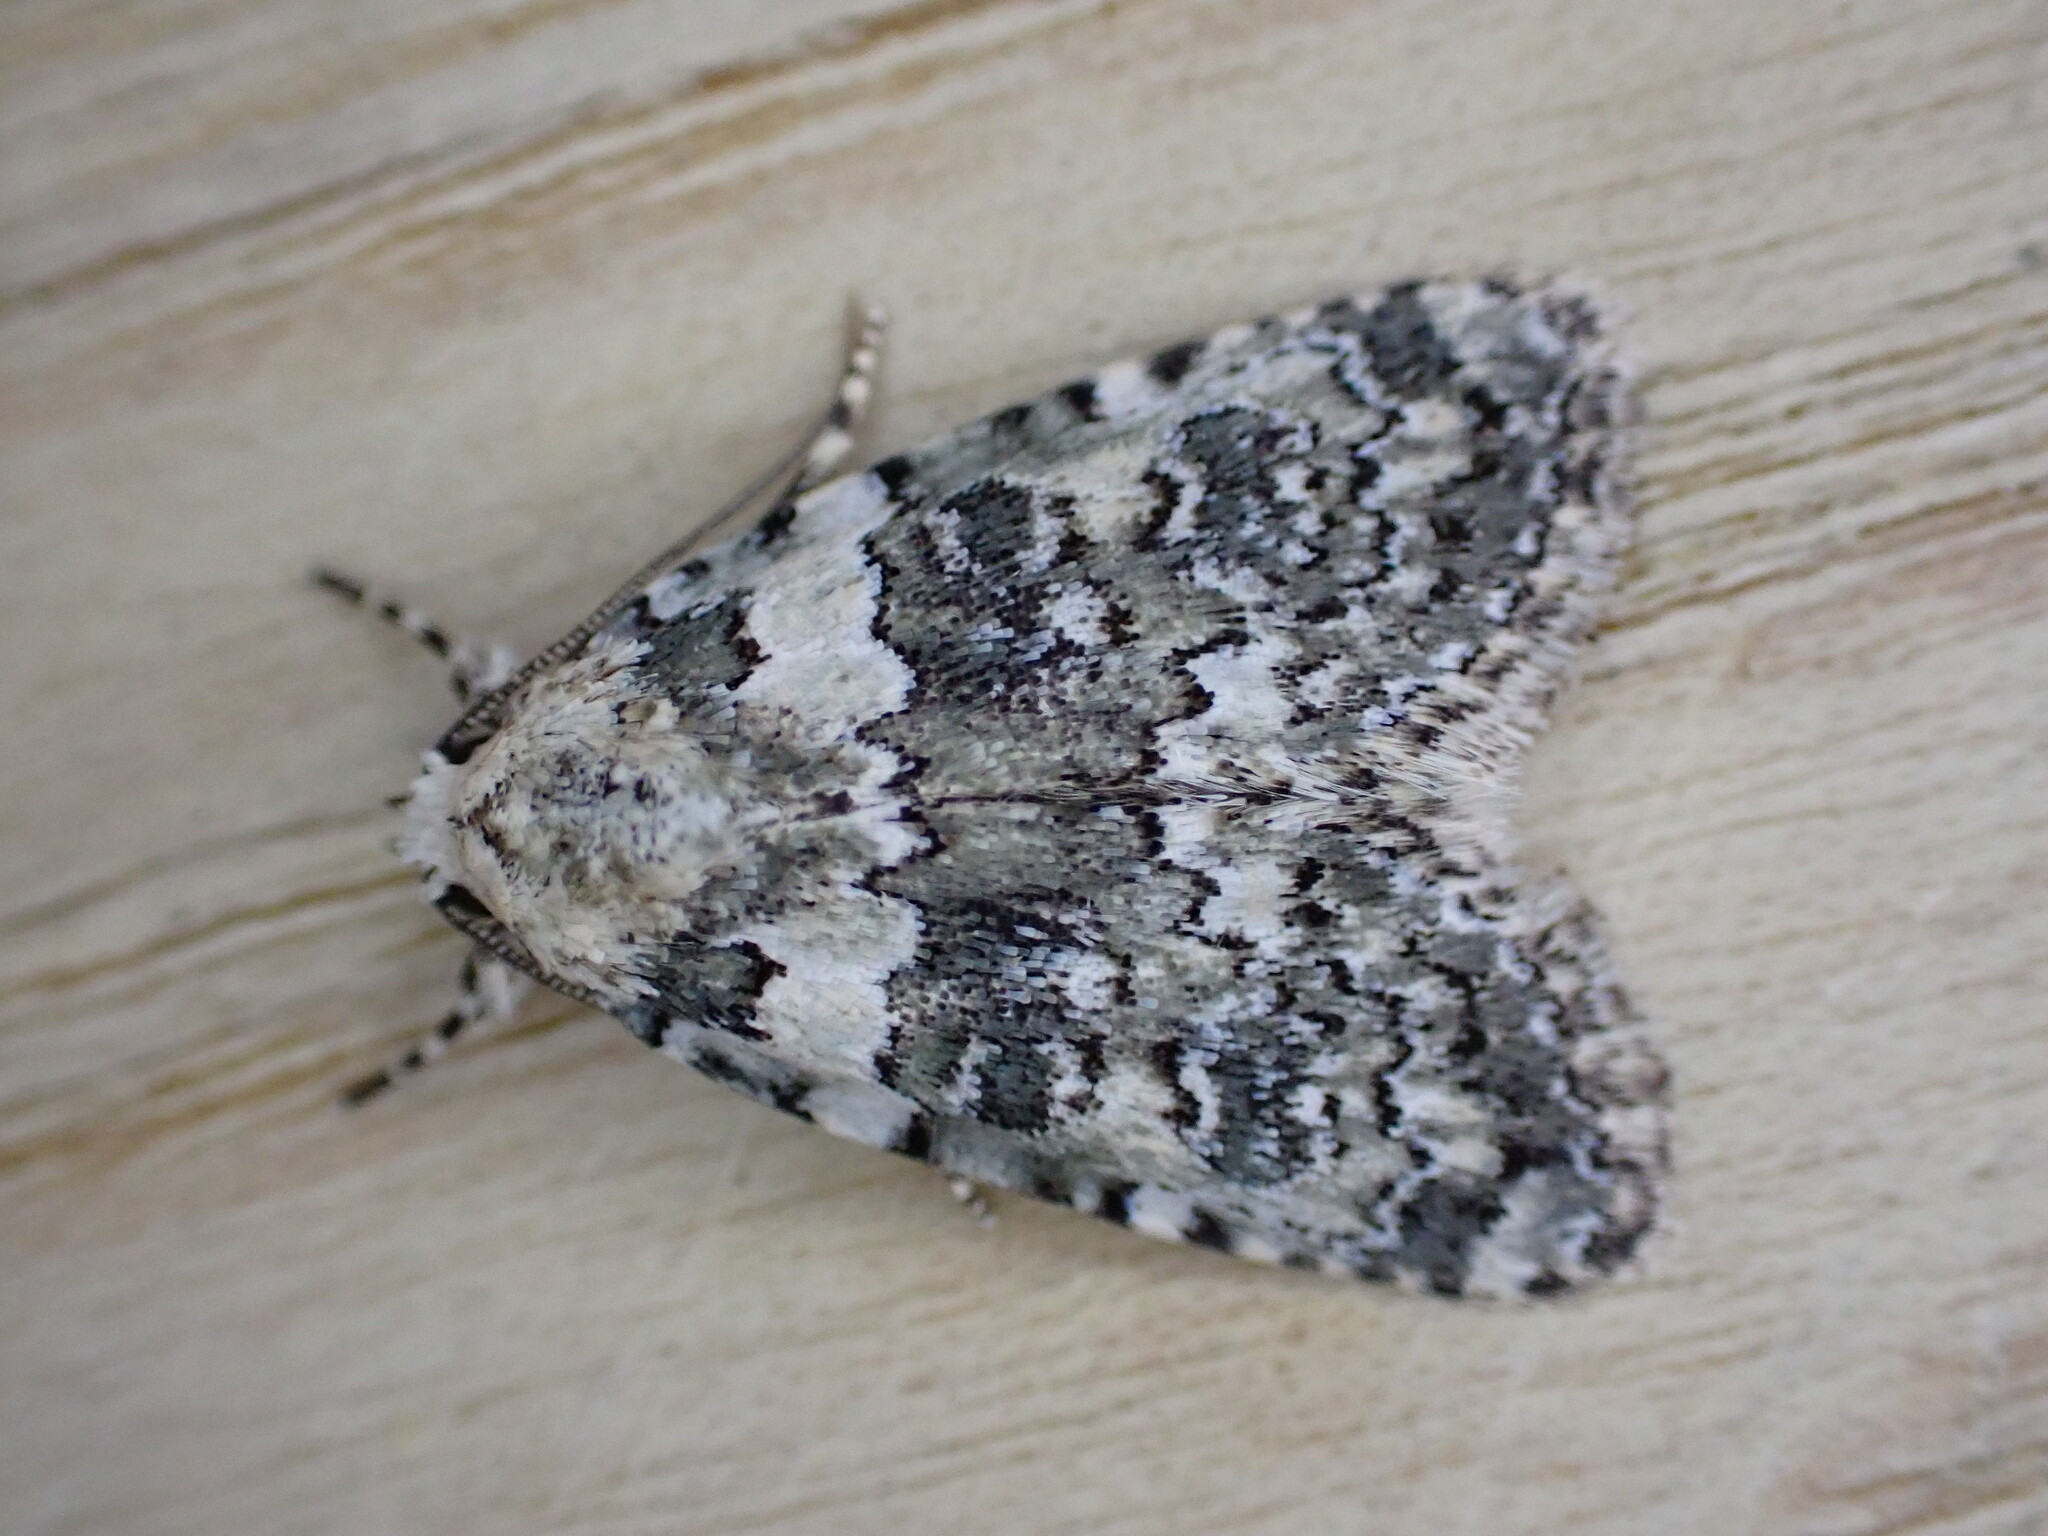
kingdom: Animalia
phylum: Arthropoda
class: Insecta
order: Lepidoptera
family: Noctuidae
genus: Bryophila
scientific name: Bryophila domestica
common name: Marbled beauty
